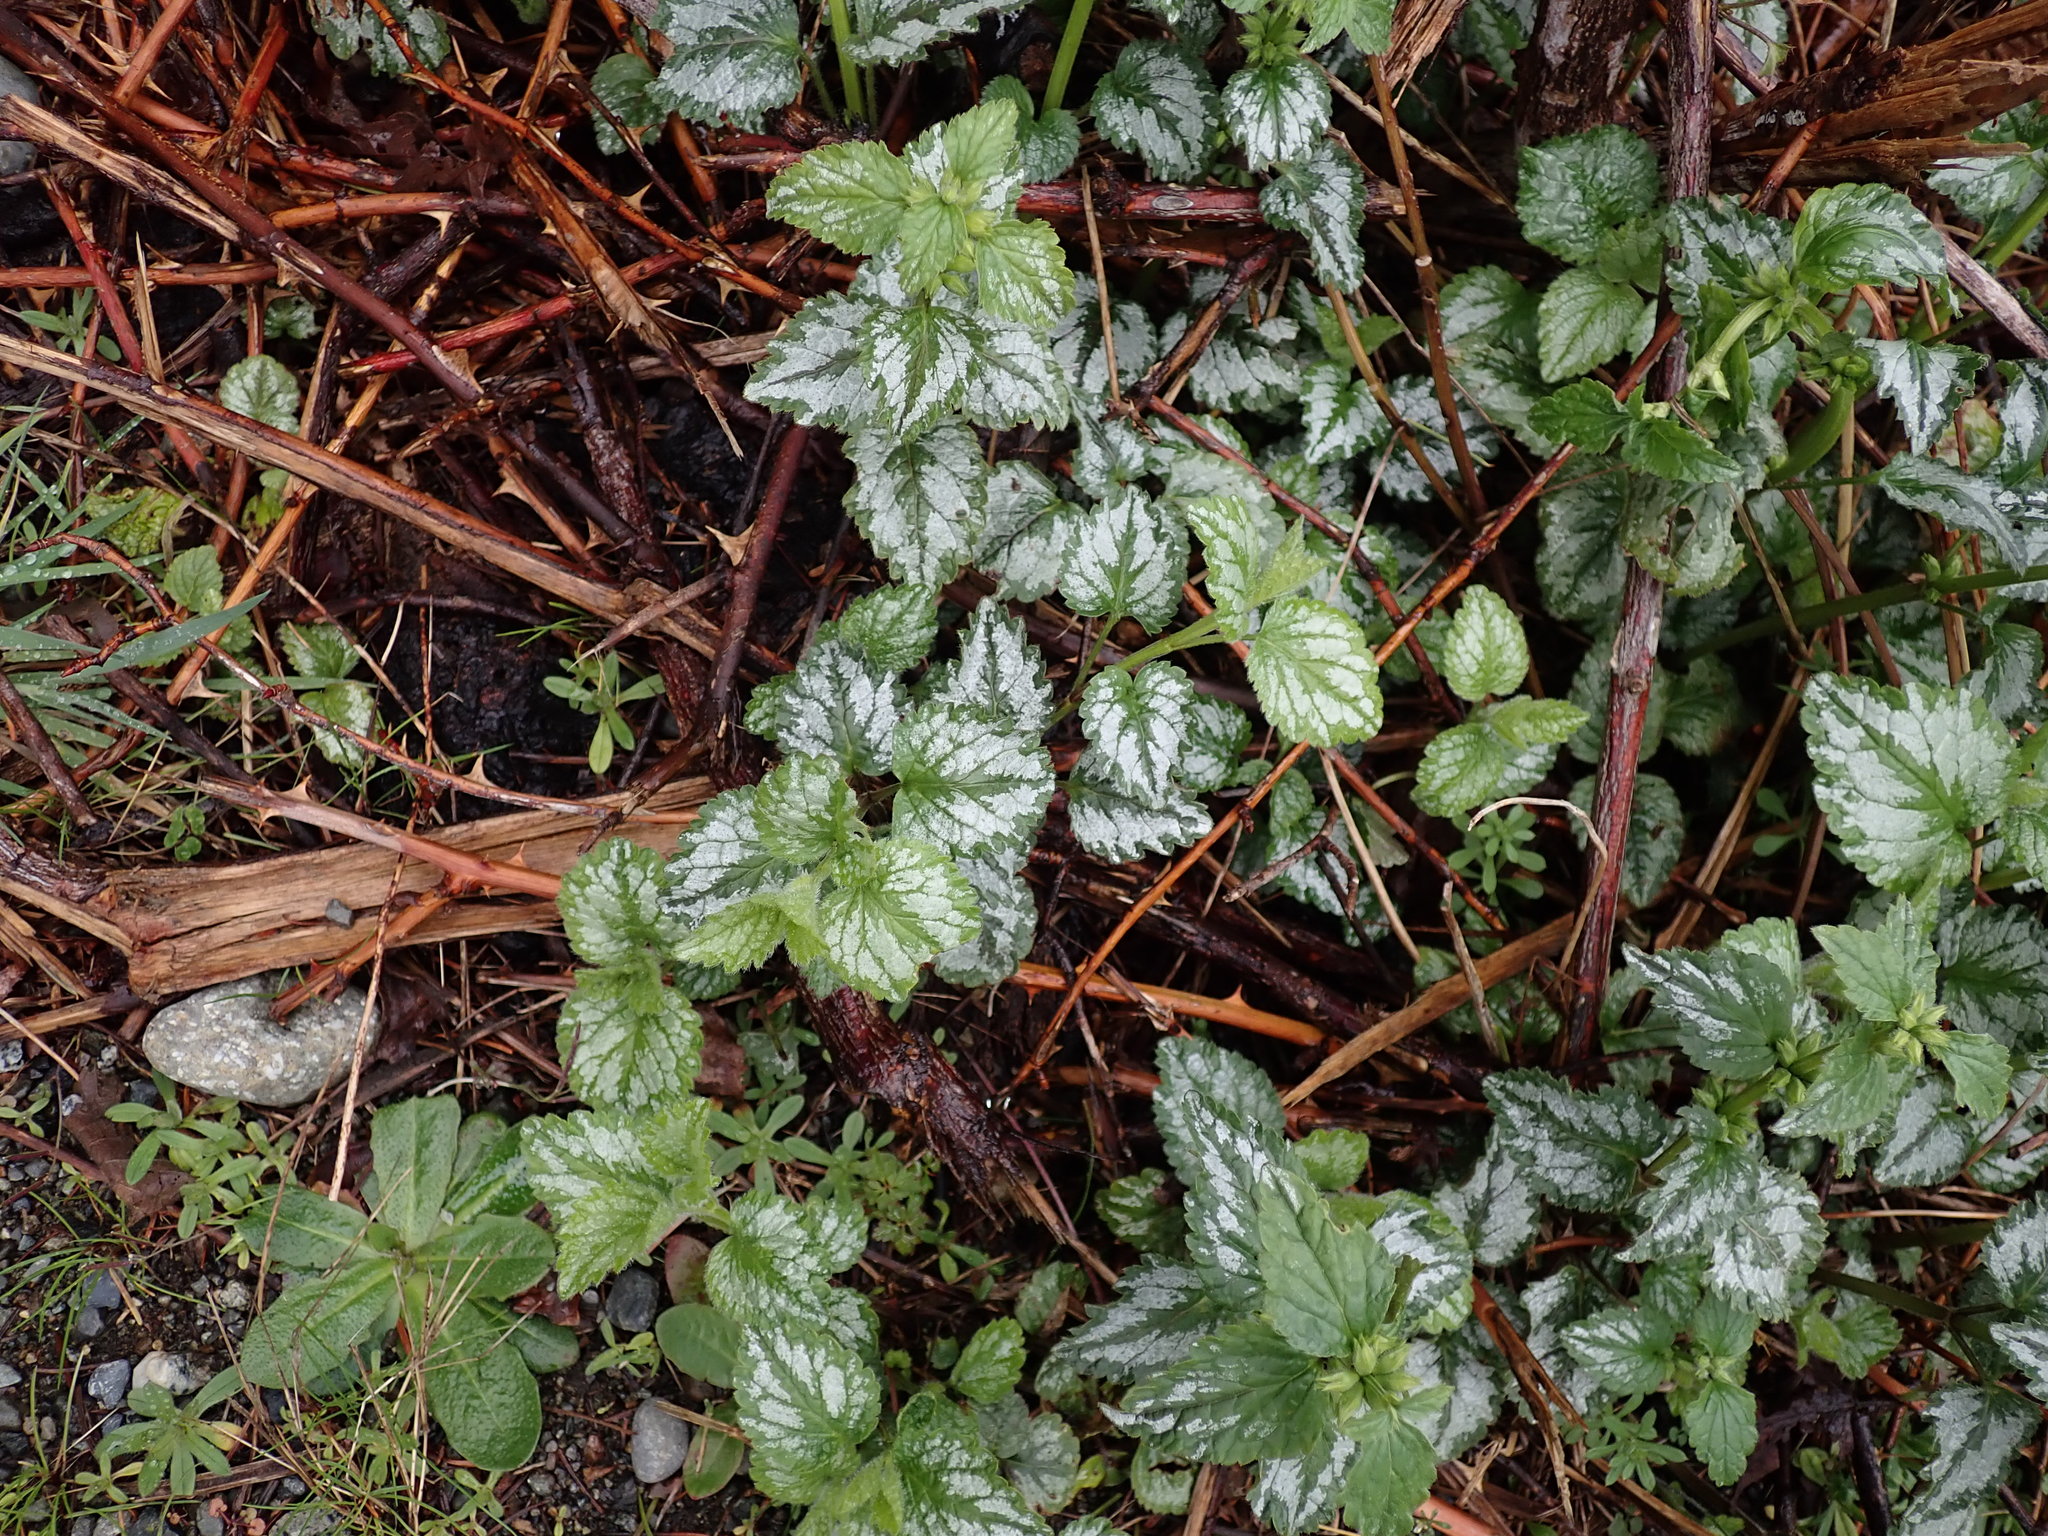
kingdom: Plantae
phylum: Tracheophyta
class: Magnoliopsida
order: Lamiales
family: Lamiaceae
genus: Lamium
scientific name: Lamium galeobdolon
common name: Yellow archangel
